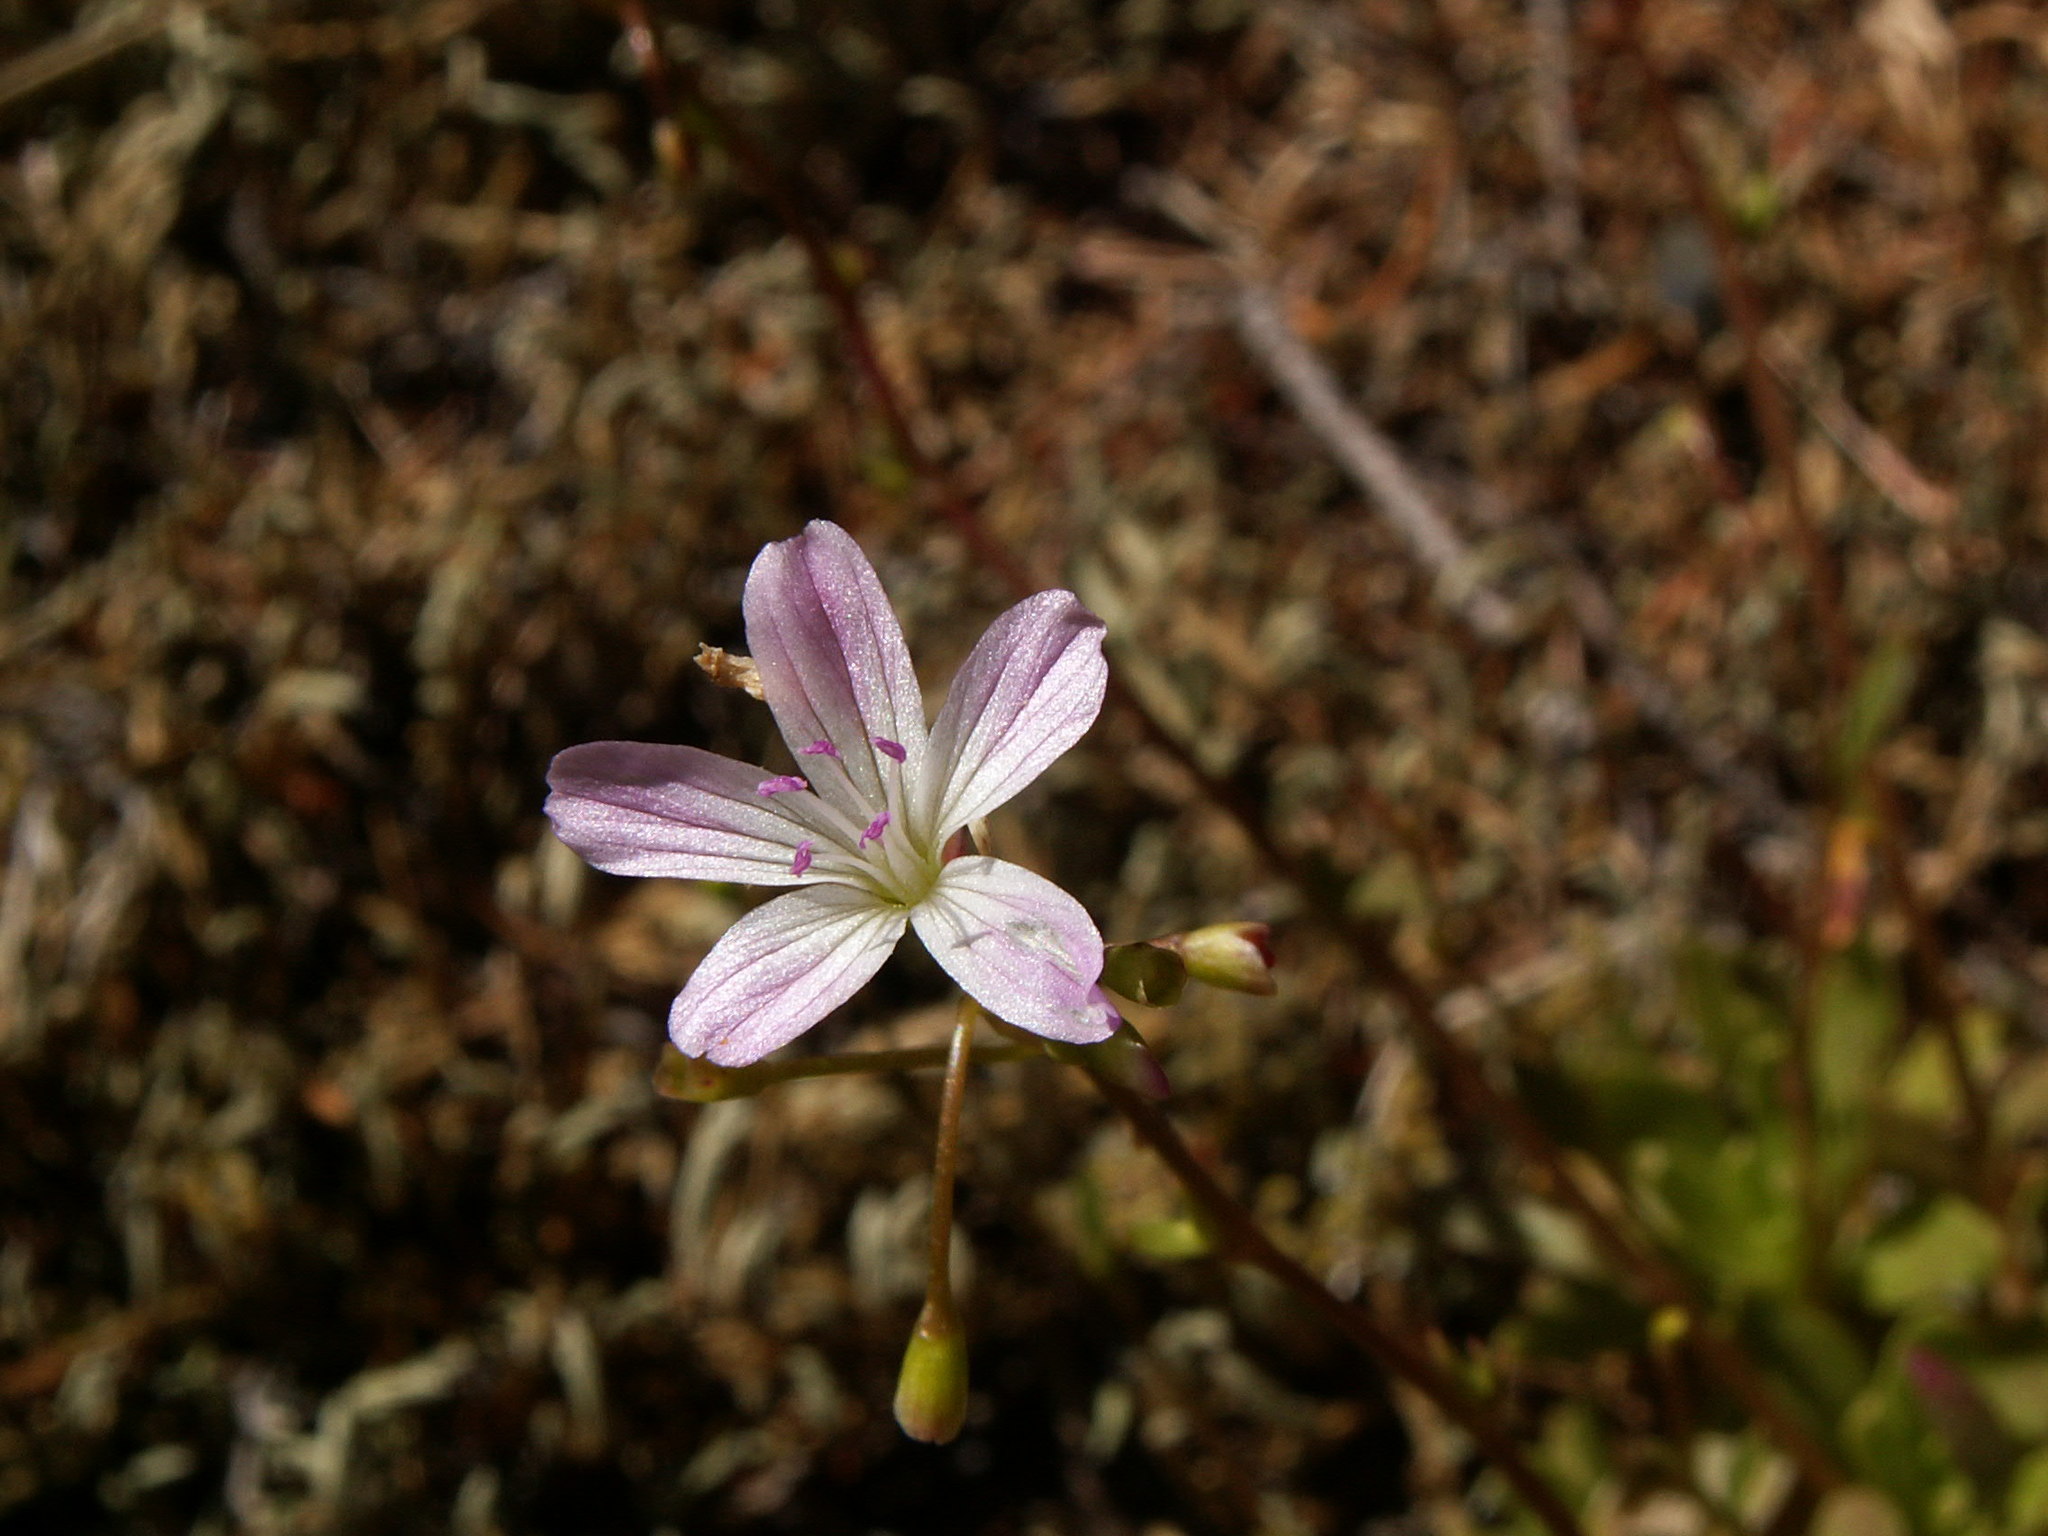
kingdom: Plantae
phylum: Tracheophyta
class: Magnoliopsida
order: Caryophyllales
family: Montiaceae
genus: Montia
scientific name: Montia parvifolia
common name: Small-leaved blinks
